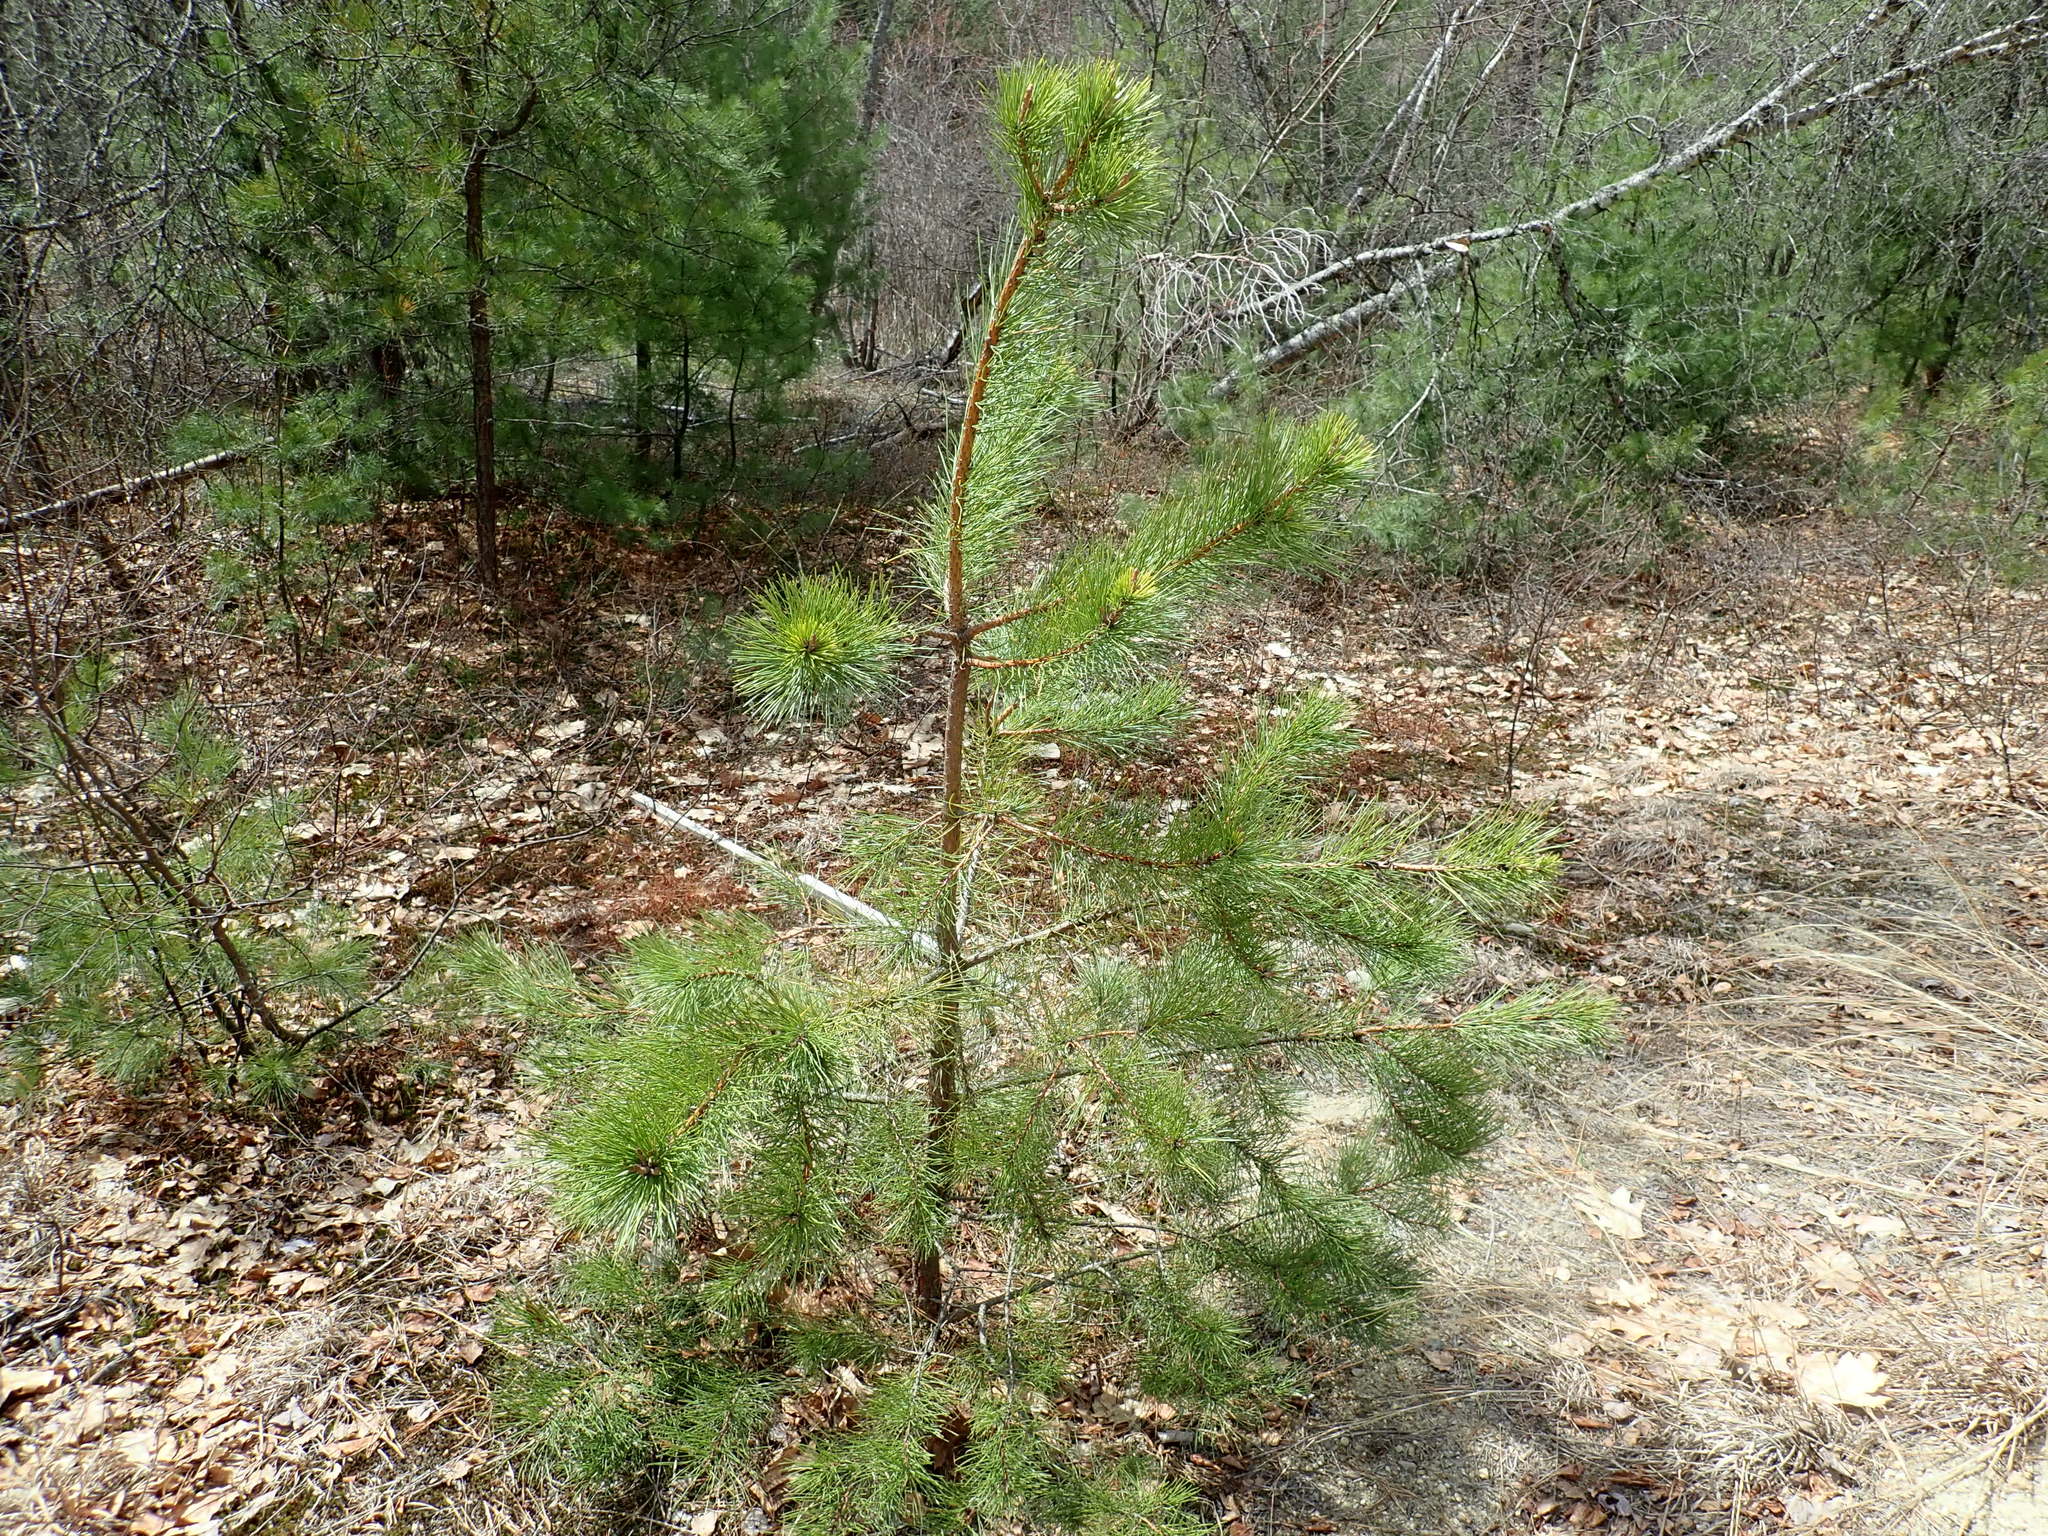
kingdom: Plantae
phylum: Tracheophyta
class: Pinopsida
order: Pinales
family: Pinaceae
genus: Pinus
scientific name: Pinus rigida
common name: Pitch pine
